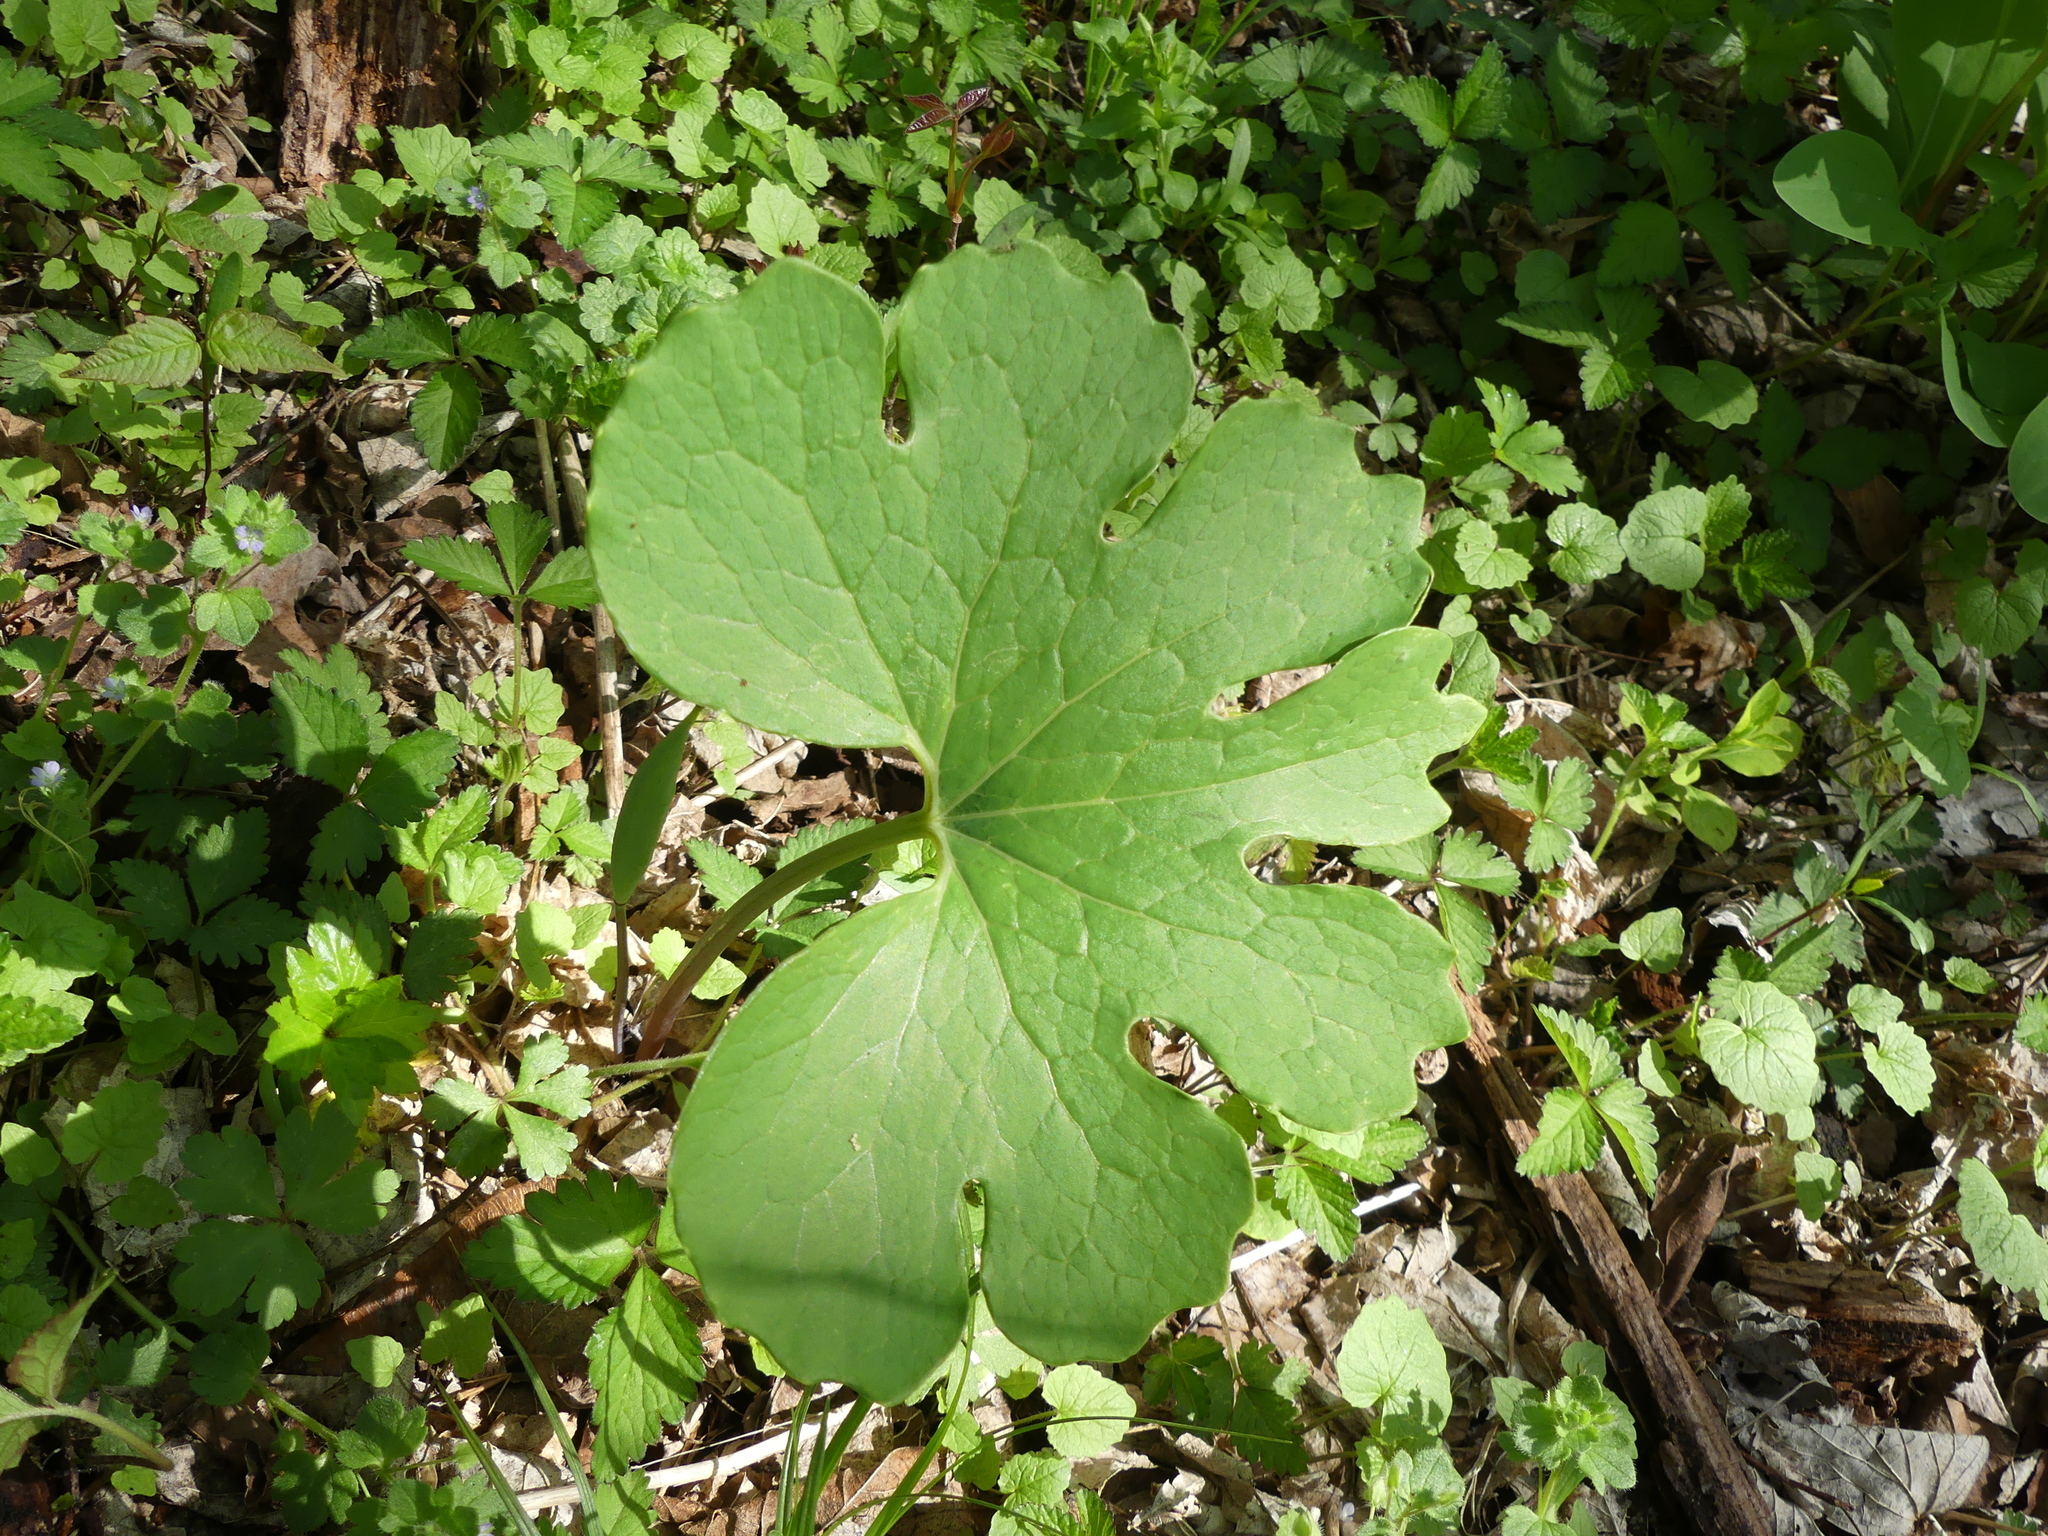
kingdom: Plantae
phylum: Tracheophyta
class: Magnoliopsida
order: Ranunculales
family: Papaveraceae
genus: Sanguinaria
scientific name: Sanguinaria canadensis
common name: Bloodroot
